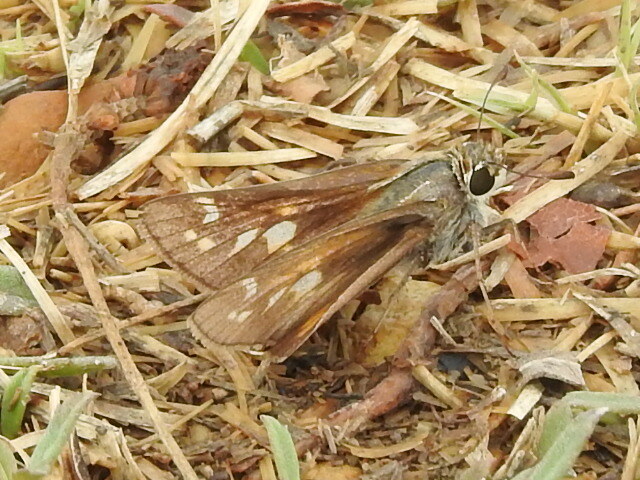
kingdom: Animalia
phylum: Arthropoda
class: Insecta
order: Lepidoptera
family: Hesperiidae
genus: Atalopedes
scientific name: Atalopedes
